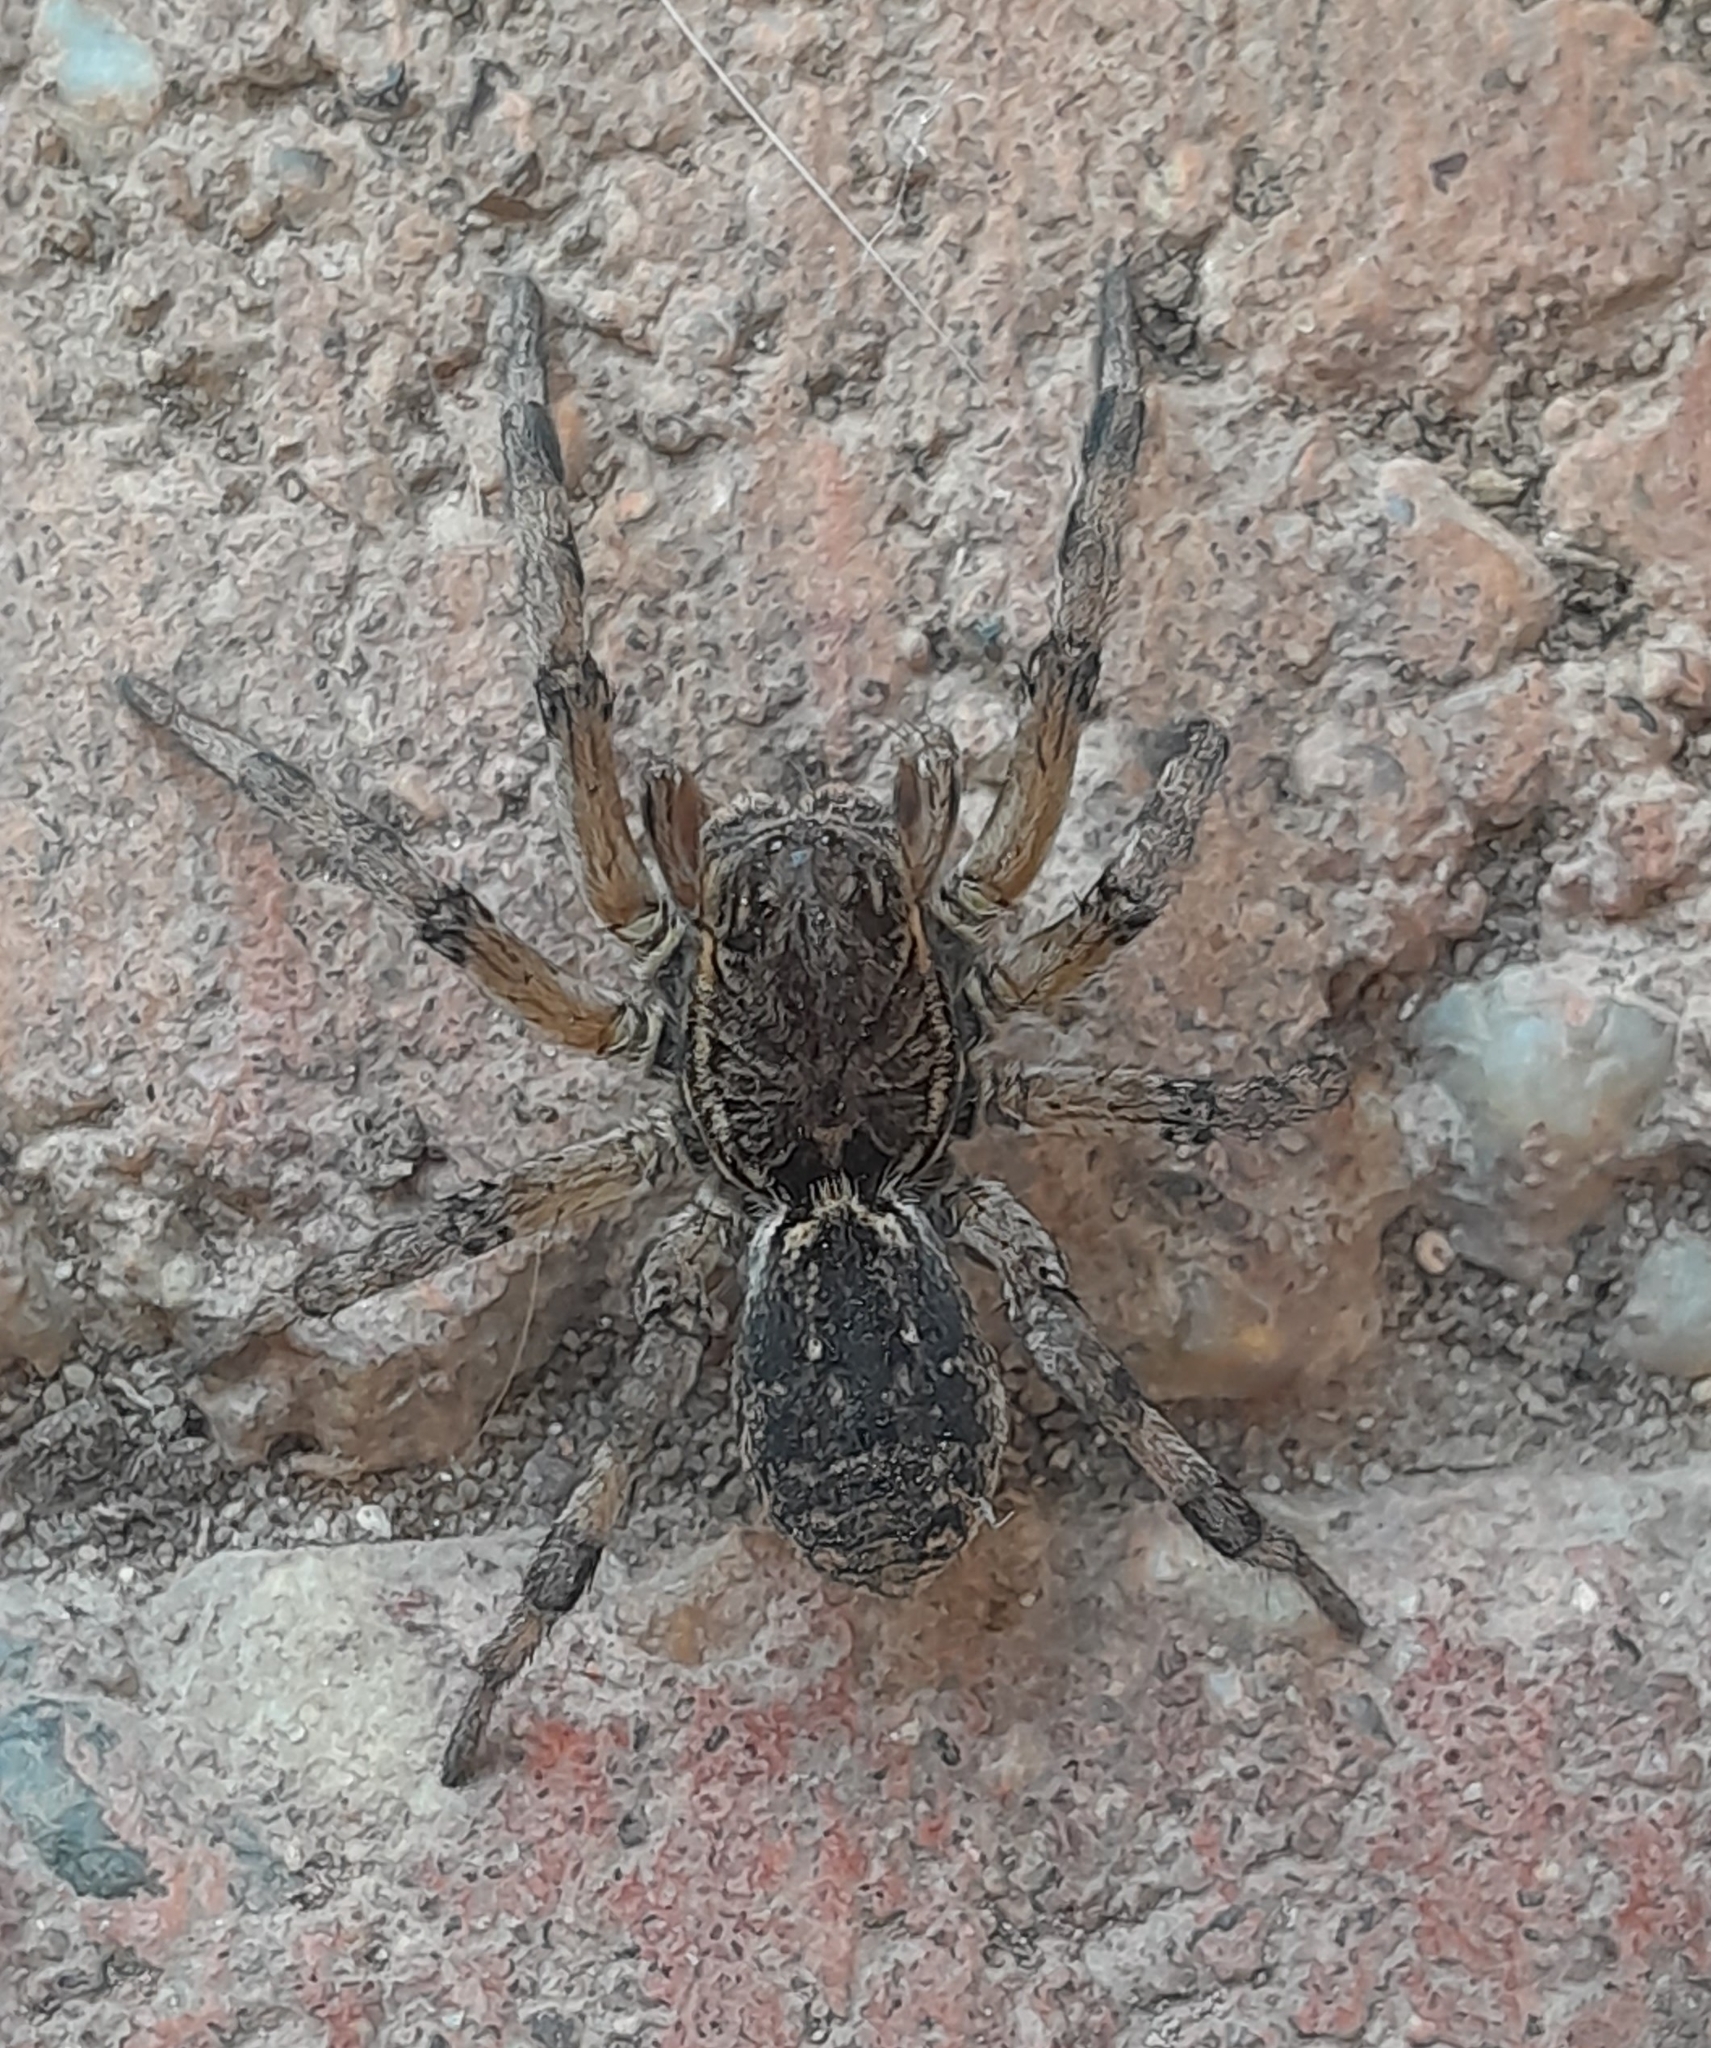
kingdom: Animalia
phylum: Arthropoda
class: Arachnida
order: Araneae
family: Lycosidae
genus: Geolycosa
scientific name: Geolycosa vultuosa
